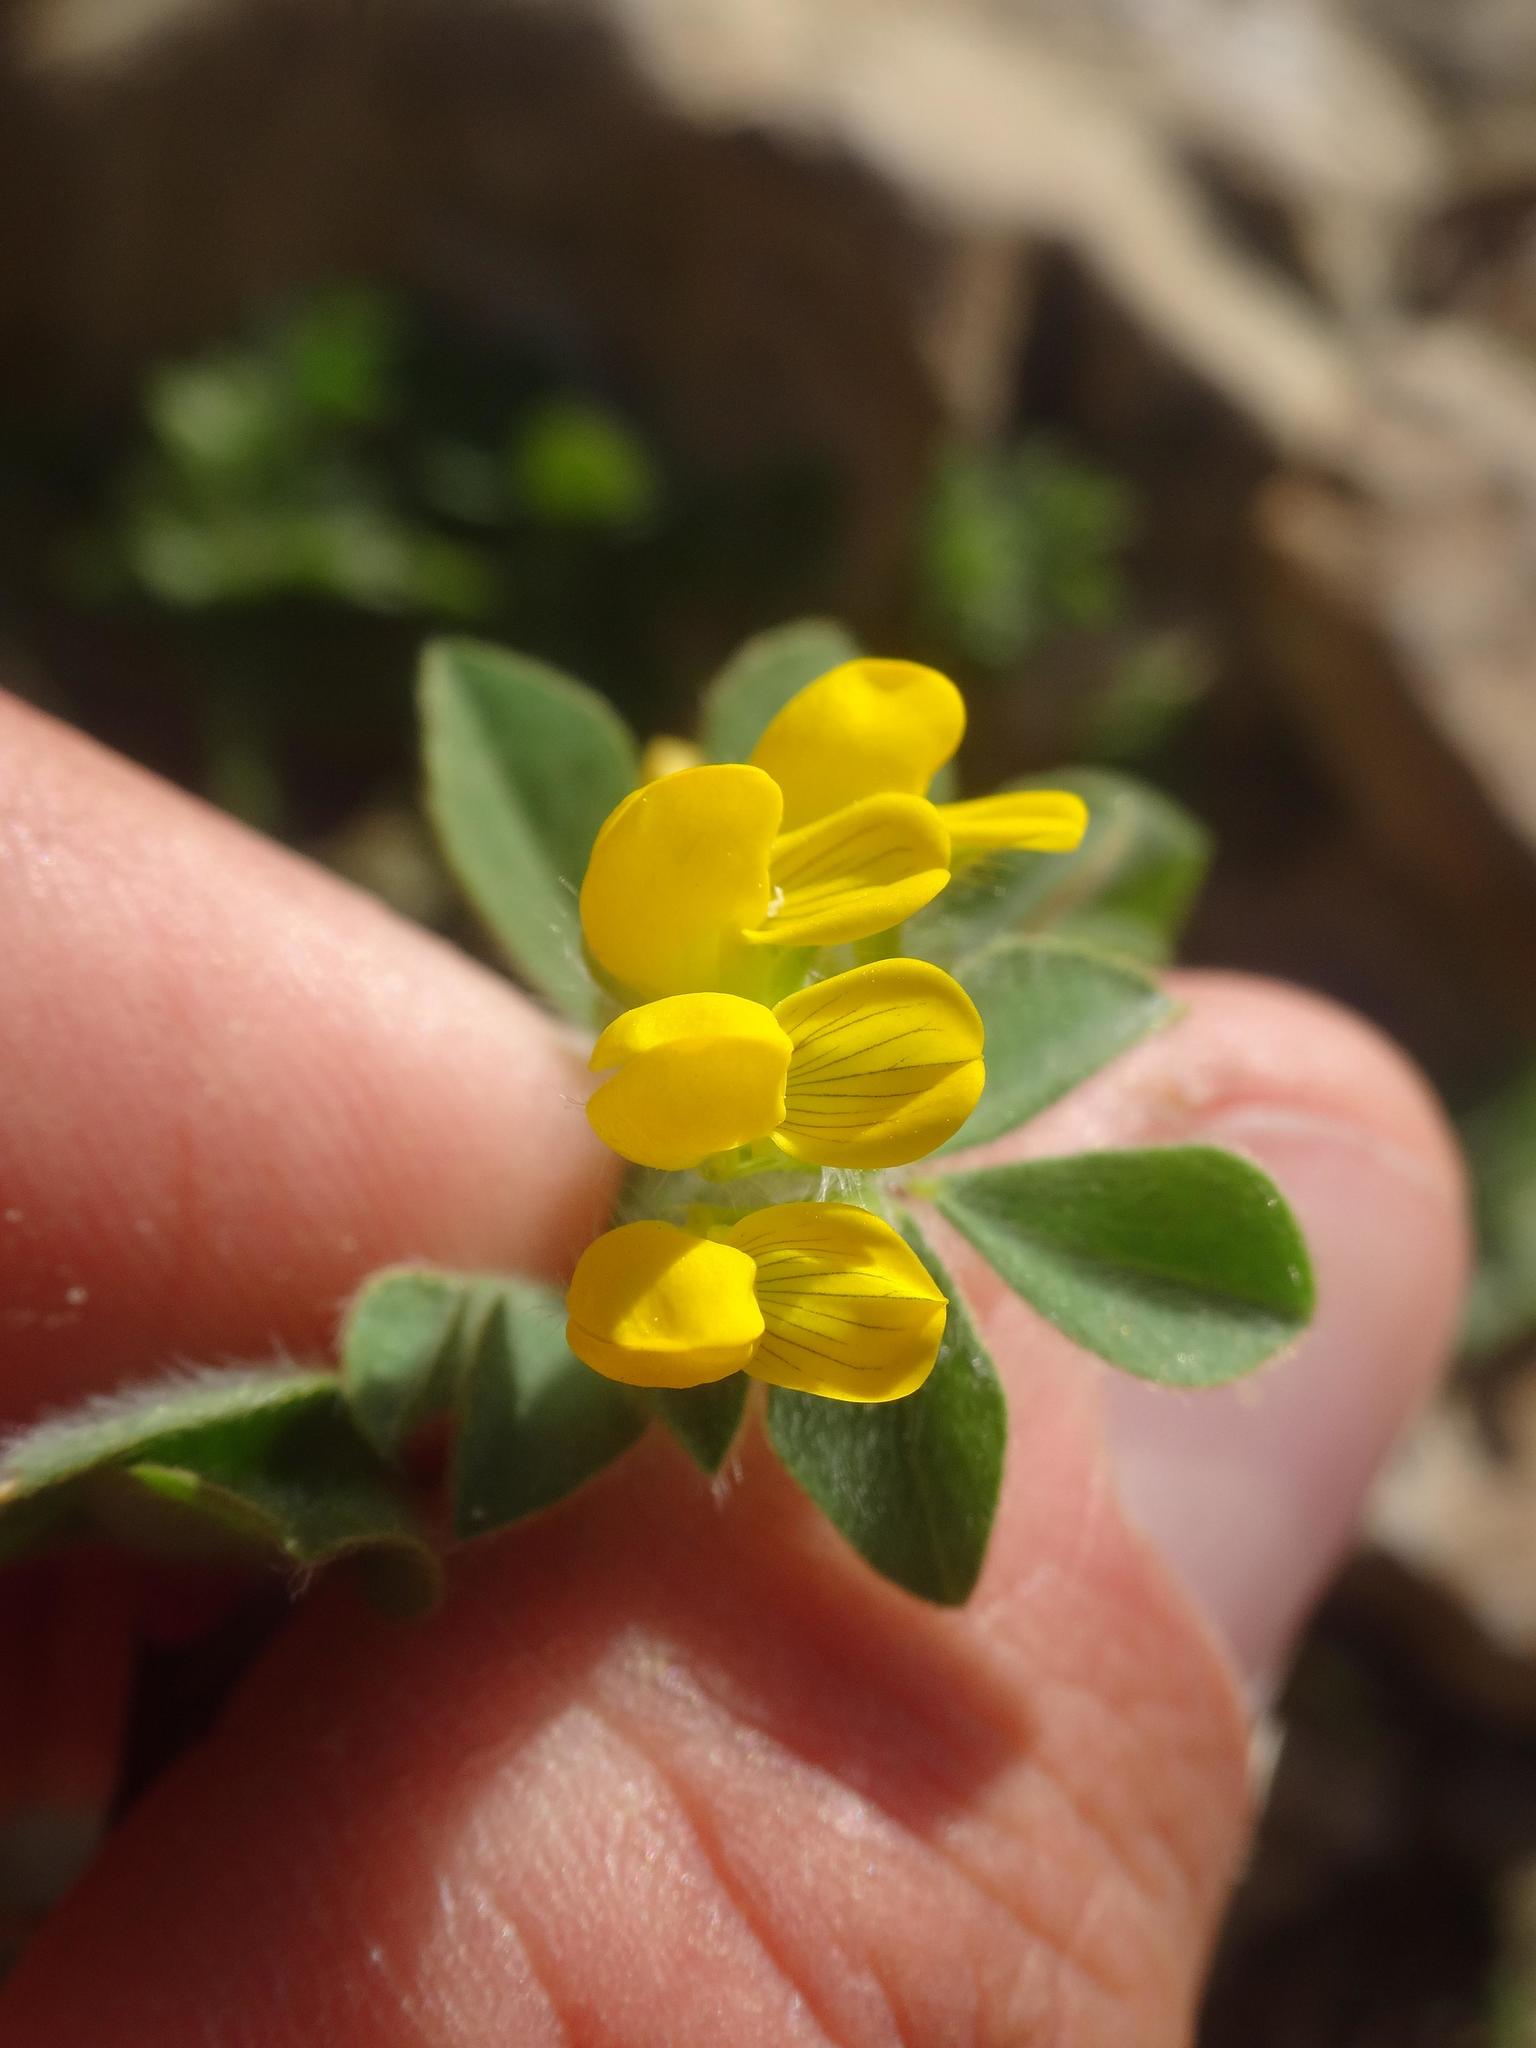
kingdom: Plantae
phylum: Tracheophyta
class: Magnoliopsida
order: Fabales
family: Fabaceae
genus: Lotus
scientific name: Lotus ornithopodioides
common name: Southern bird's-foot trefoil
